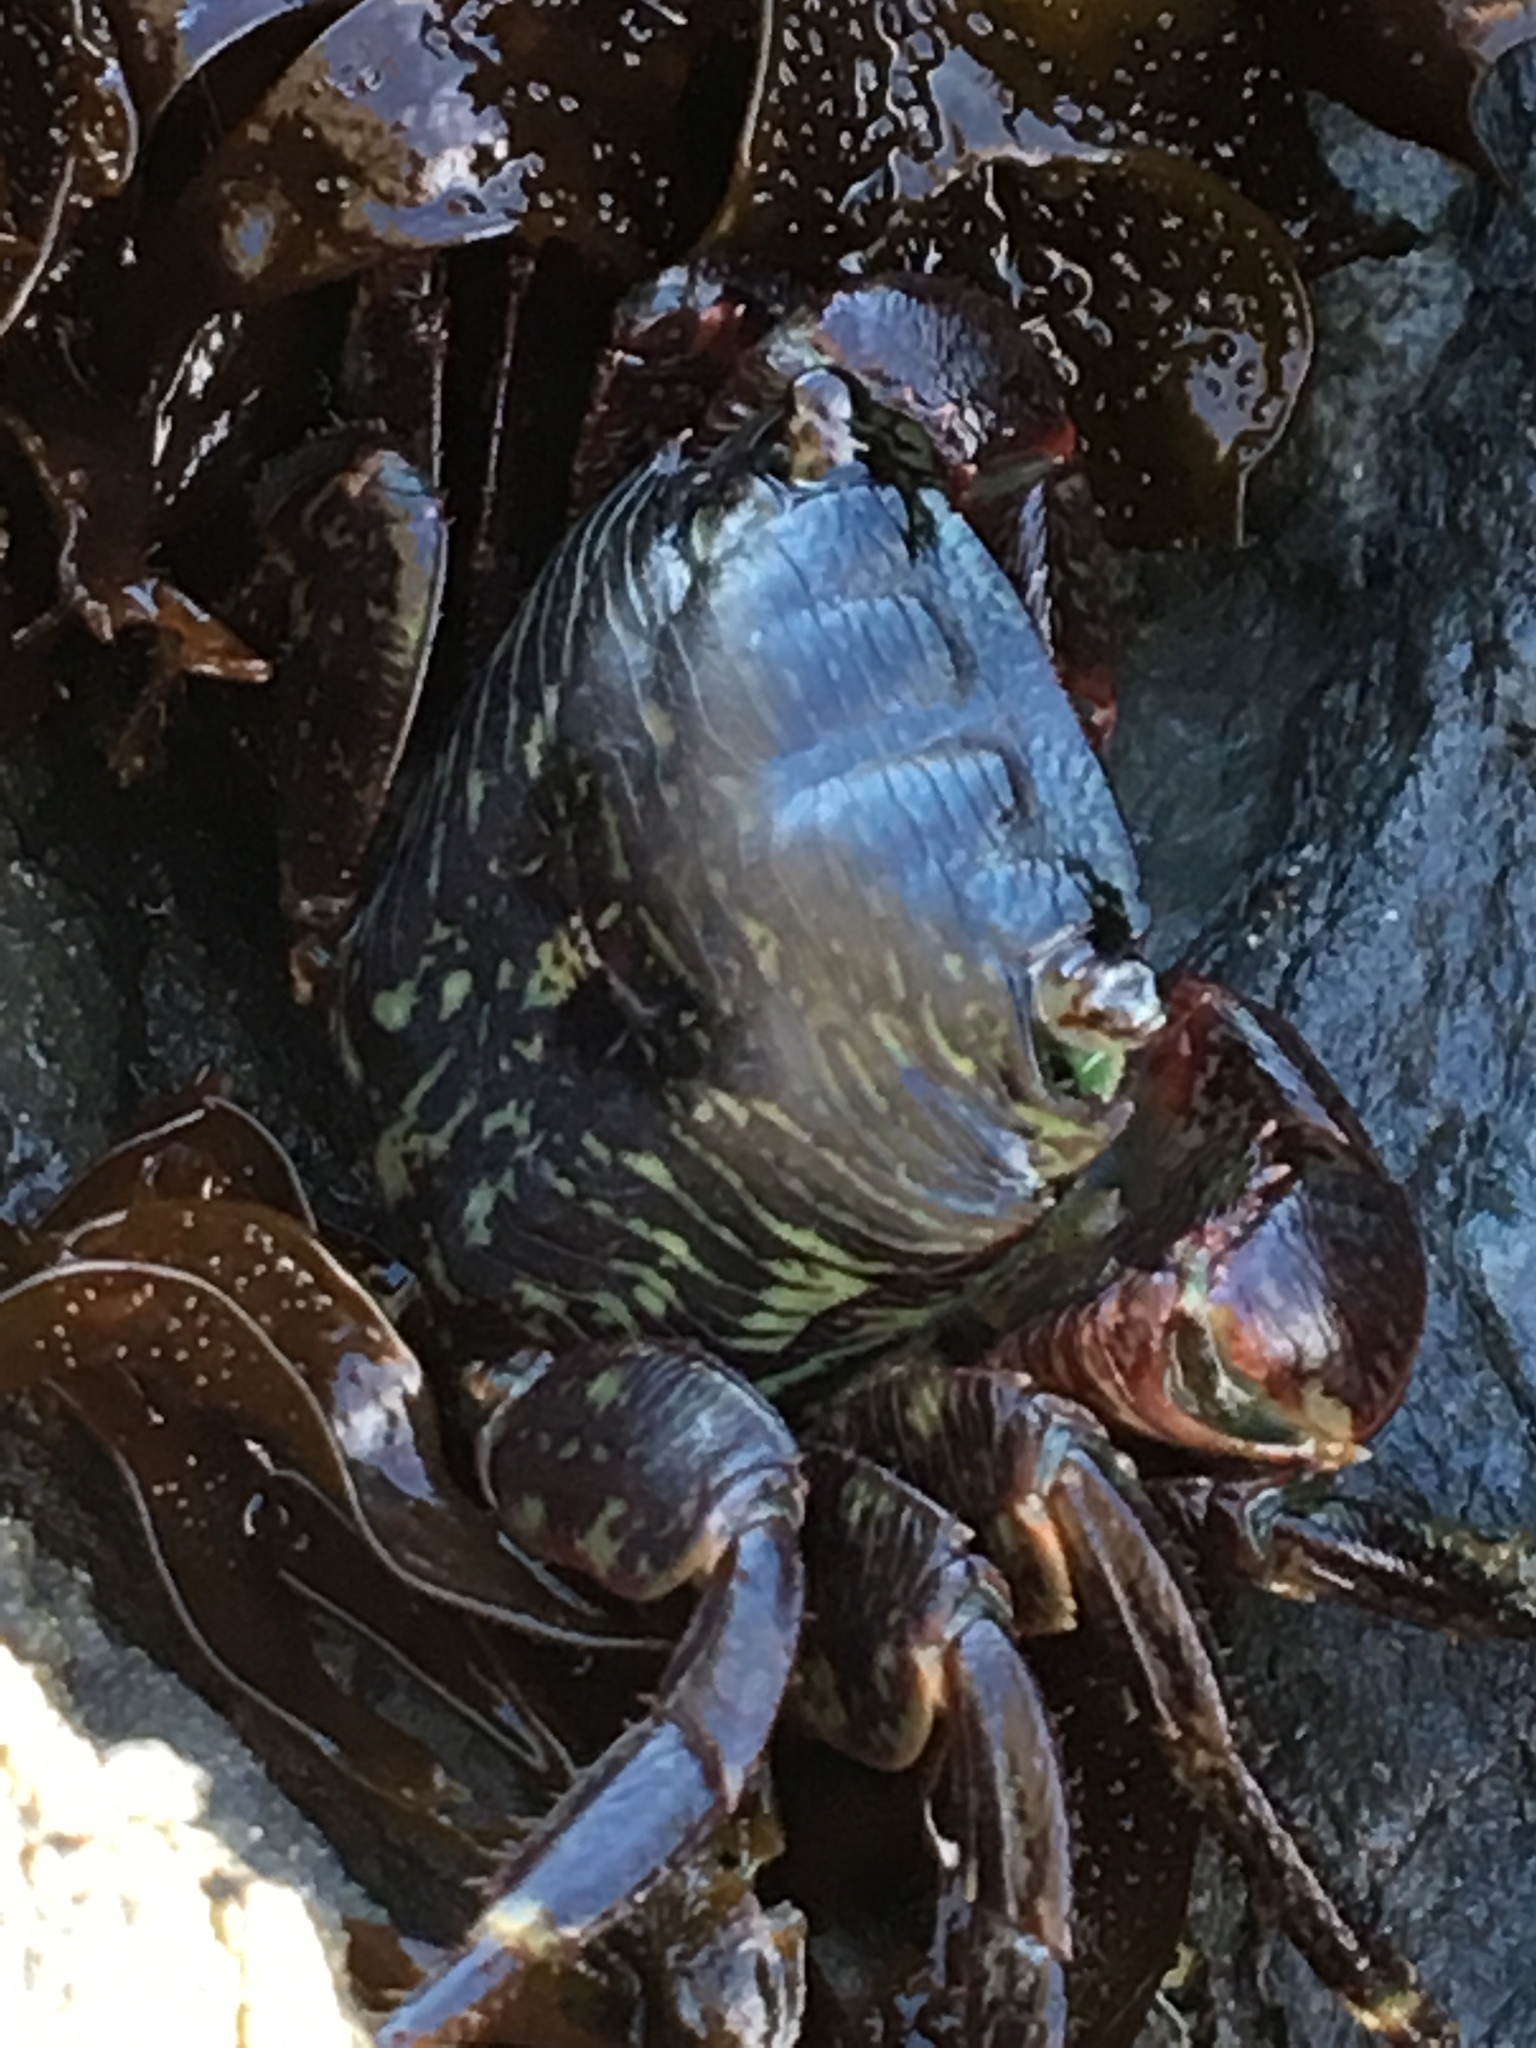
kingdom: Animalia
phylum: Arthropoda
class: Malacostraca
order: Decapoda
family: Grapsidae
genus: Pachygrapsus
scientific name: Pachygrapsus crassipes
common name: Striped shore crab
